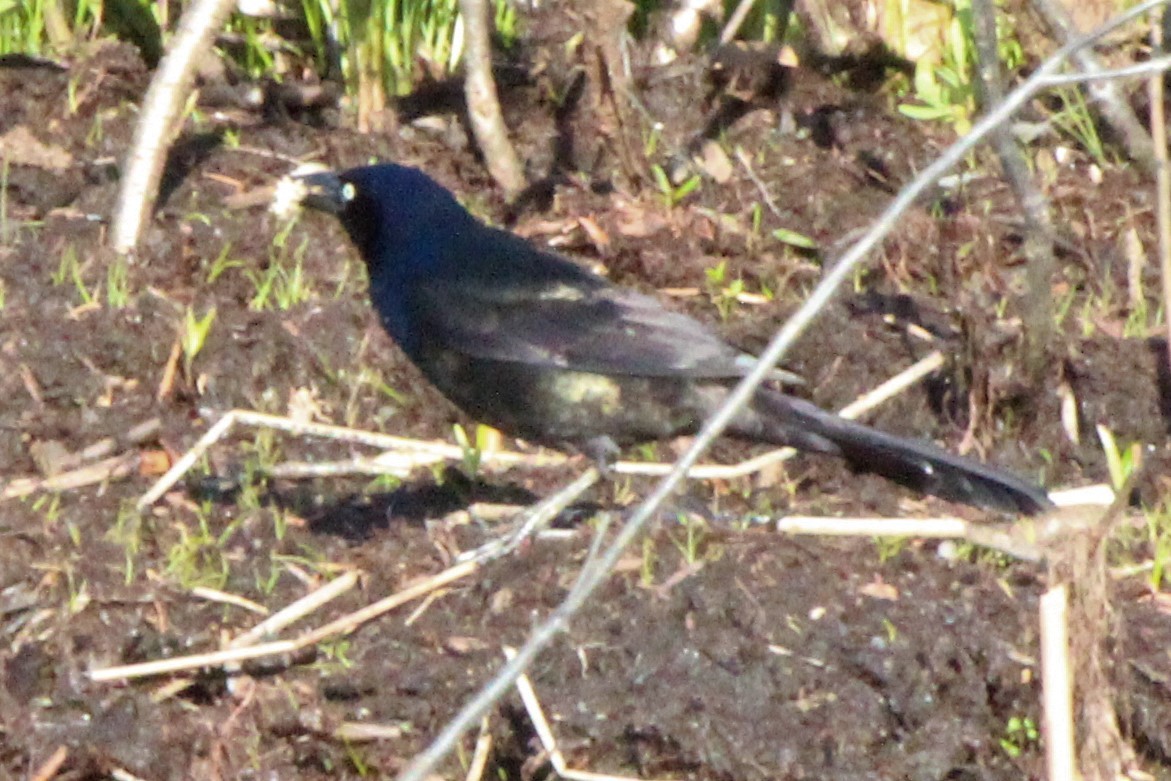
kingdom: Animalia
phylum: Chordata
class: Aves
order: Passeriformes
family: Icteridae
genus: Quiscalus
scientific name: Quiscalus quiscula
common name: Common grackle
